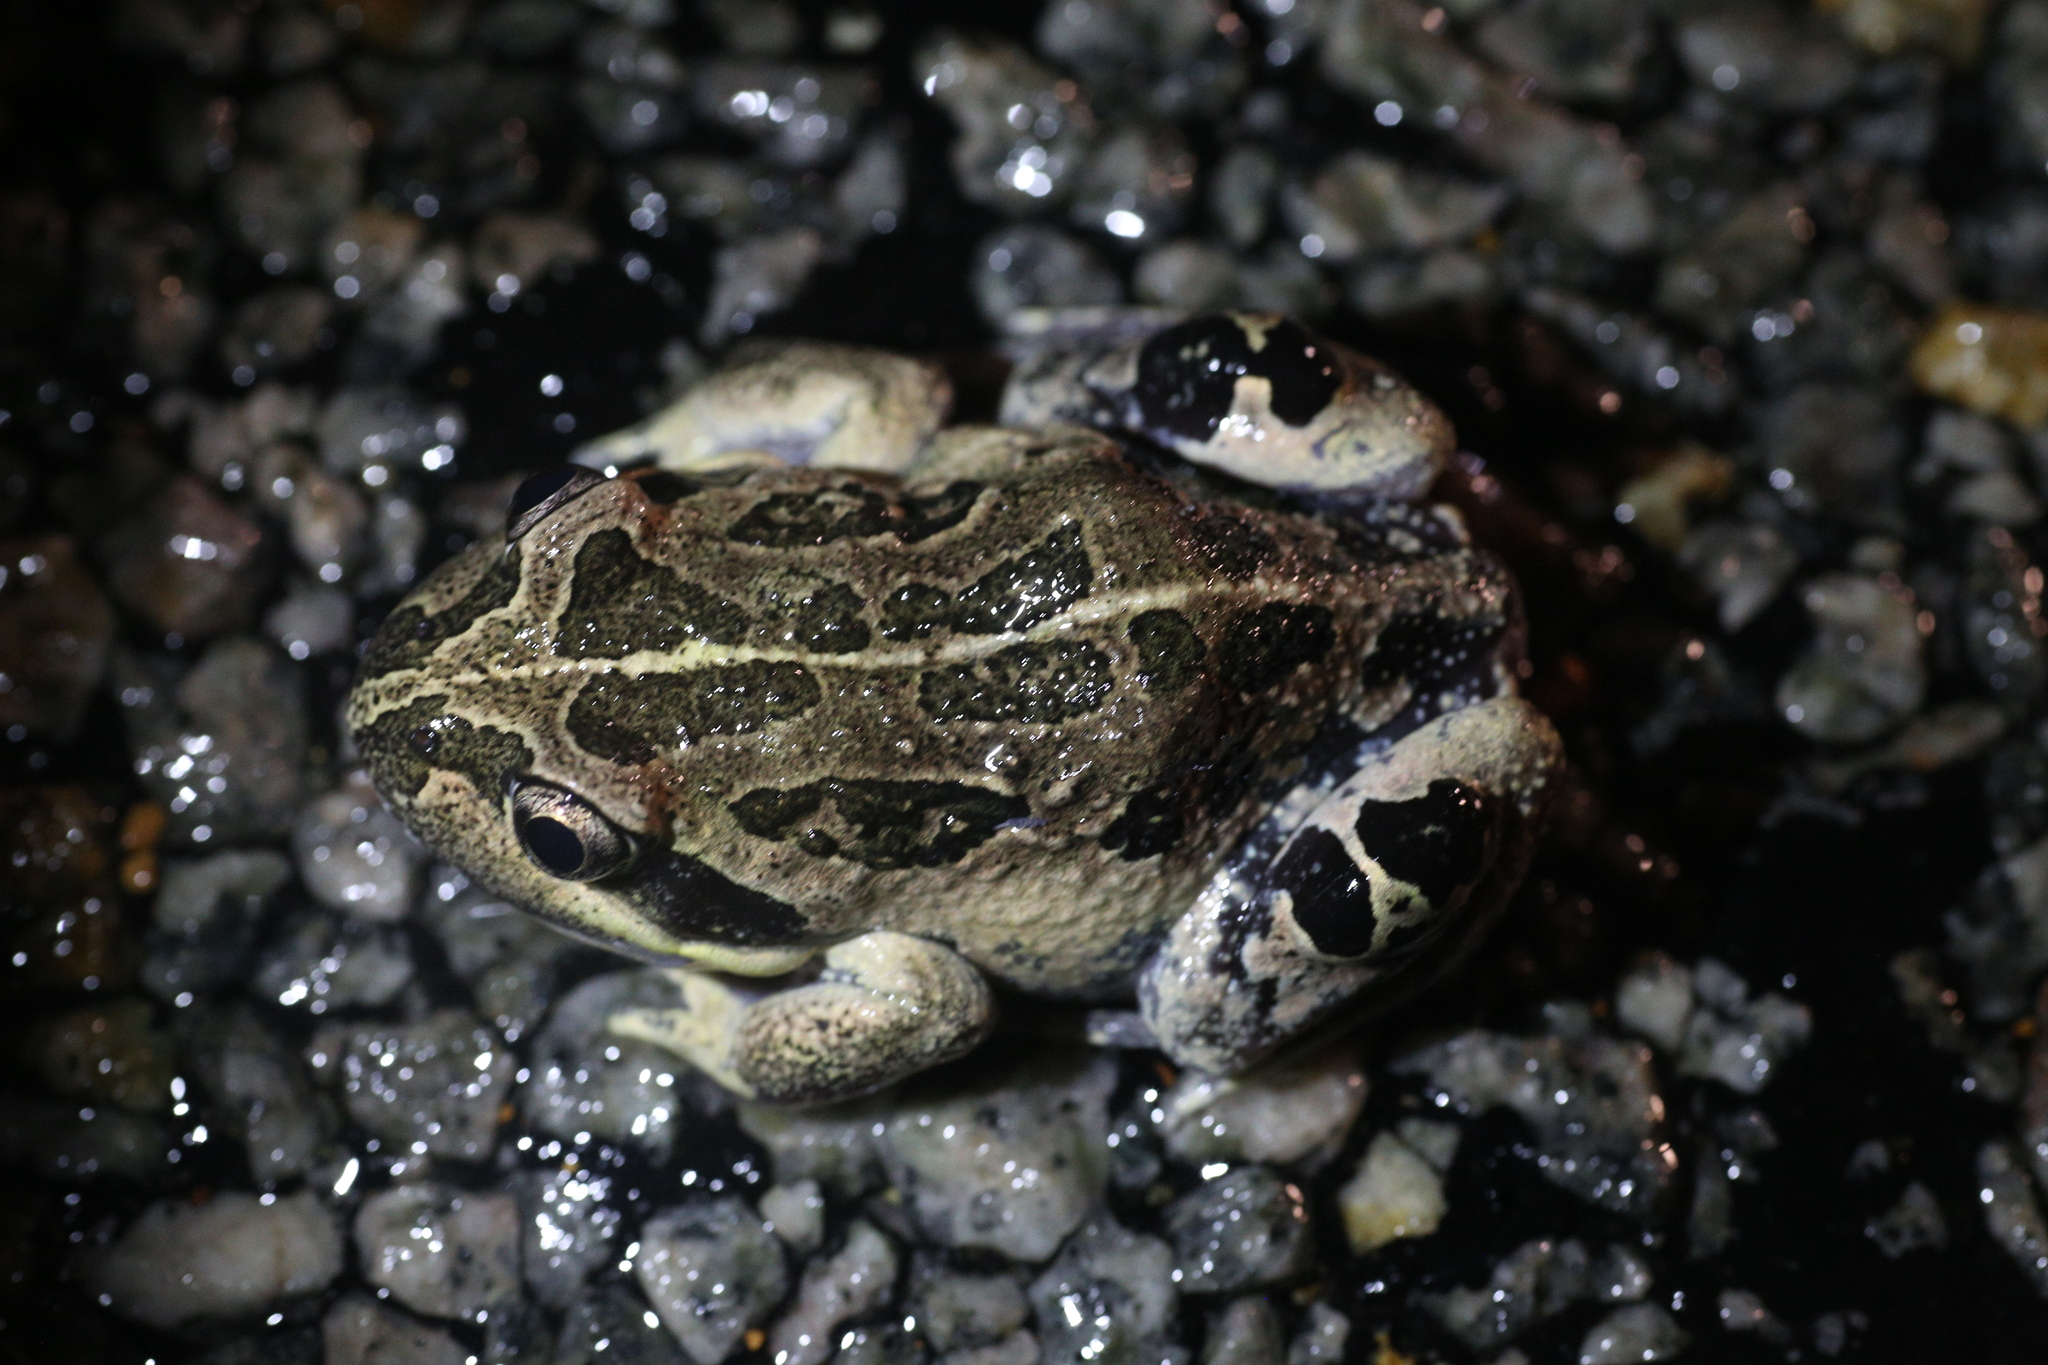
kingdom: Animalia
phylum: Chordata
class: Amphibia
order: Anura
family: Limnodynastidae
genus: Limnodynastes
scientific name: Limnodynastes dorsalis
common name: Banjo frog
